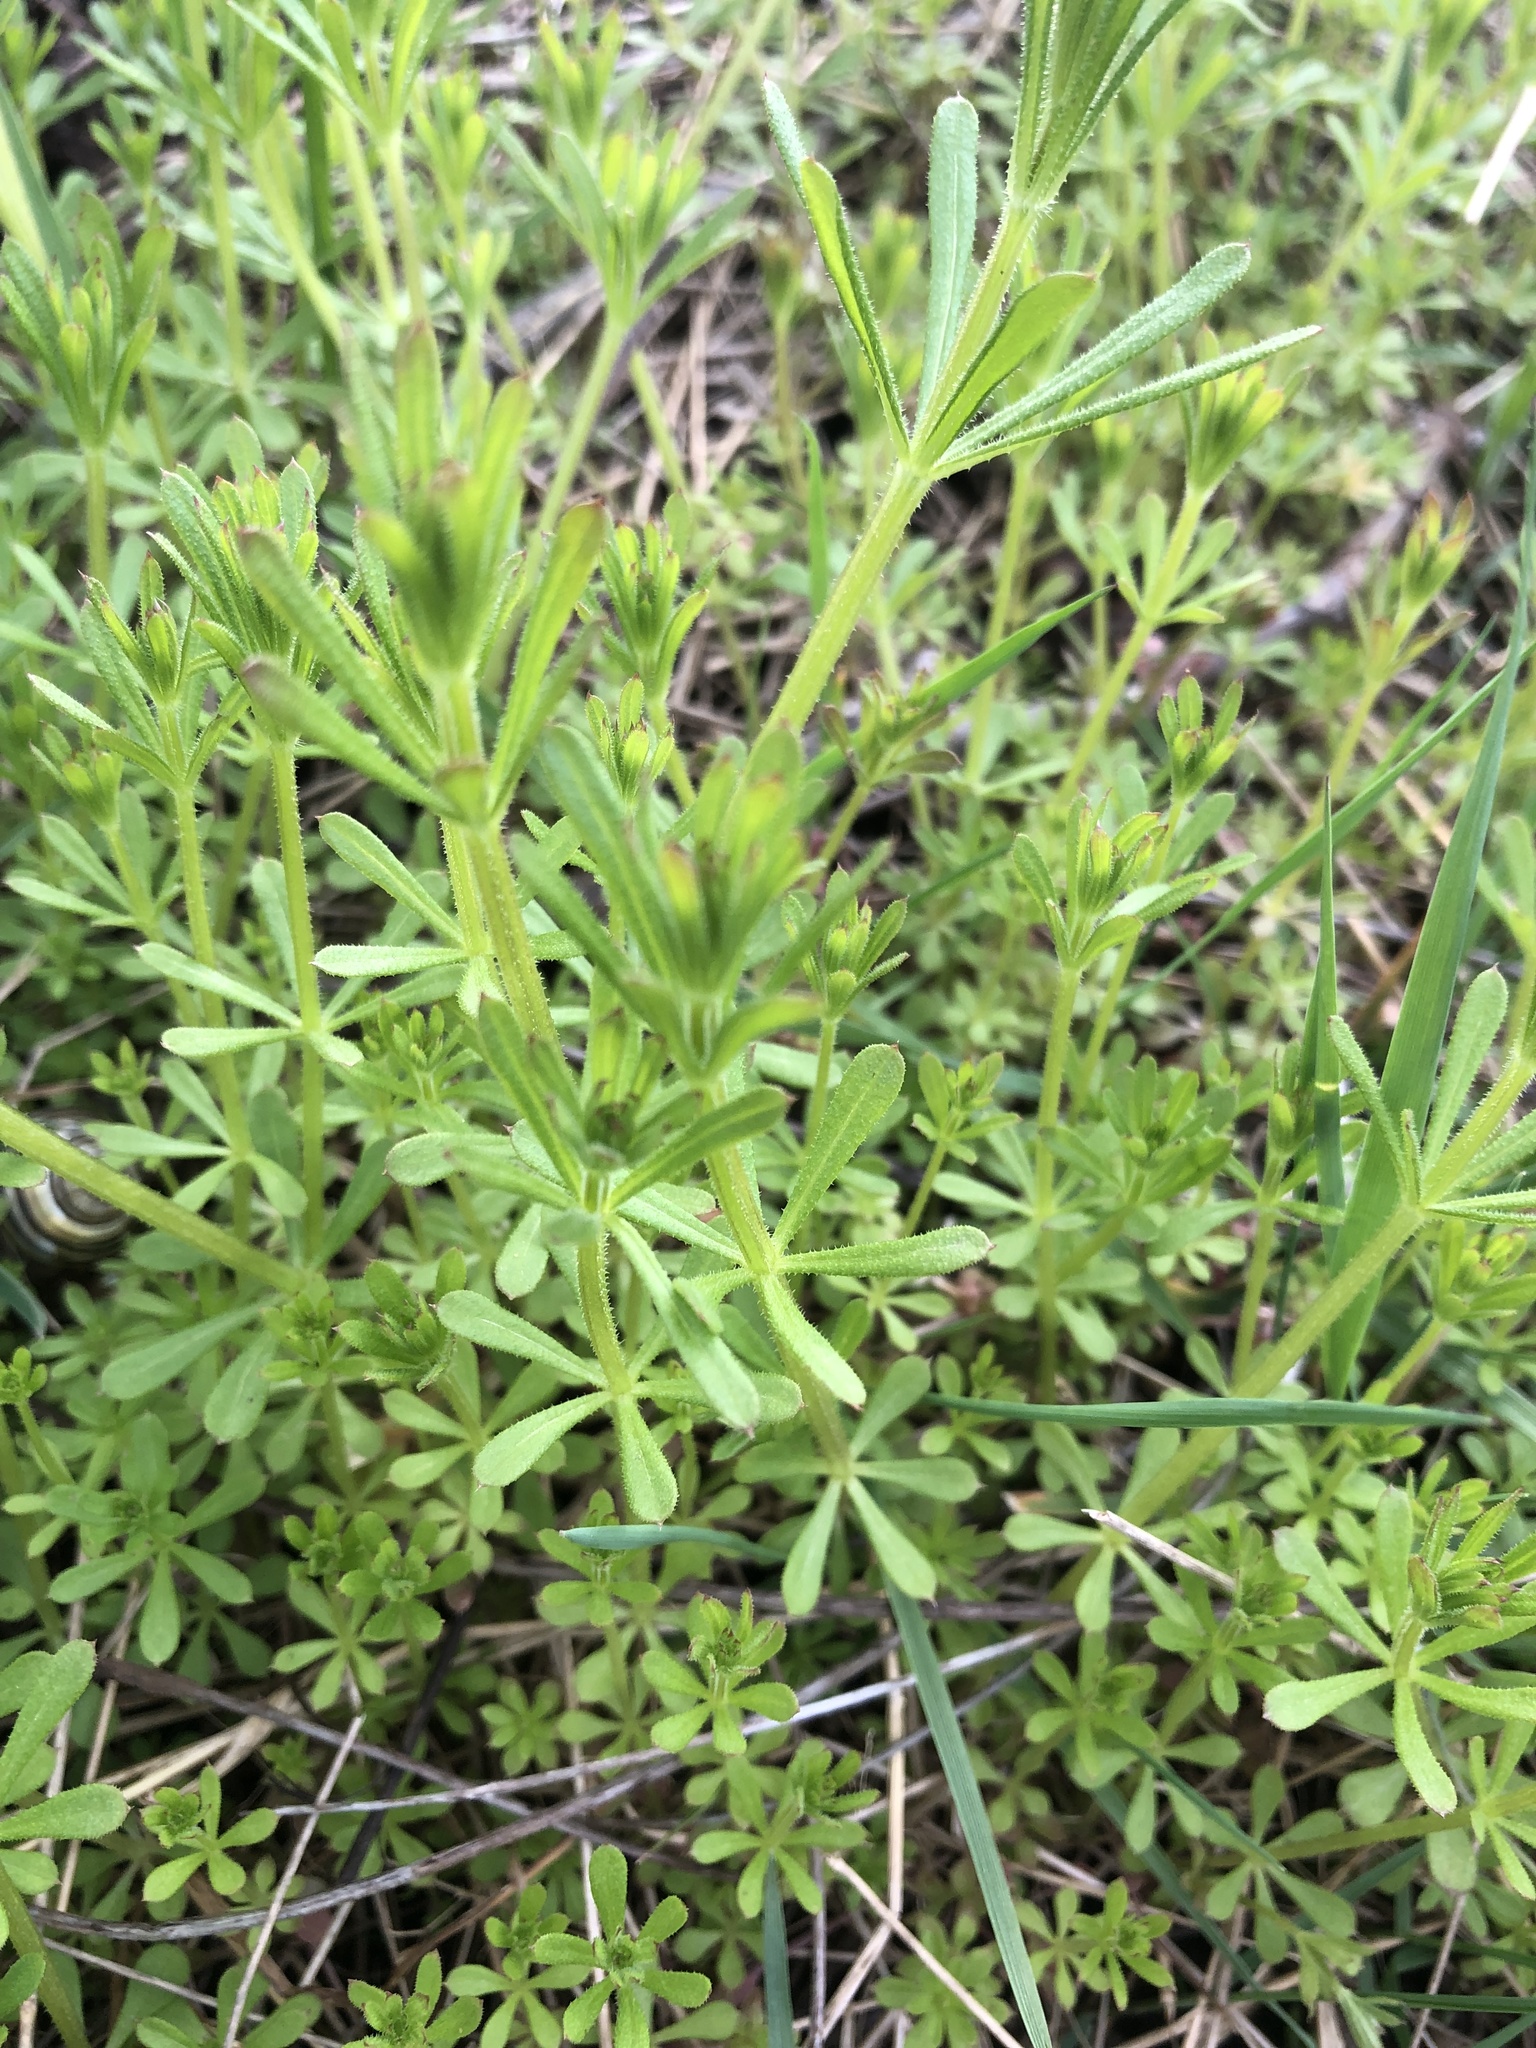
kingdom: Plantae
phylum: Tracheophyta
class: Magnoliopsida
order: Gentianales
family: Rubiaceae
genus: Galium
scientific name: Galium aparine
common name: Cleavers
